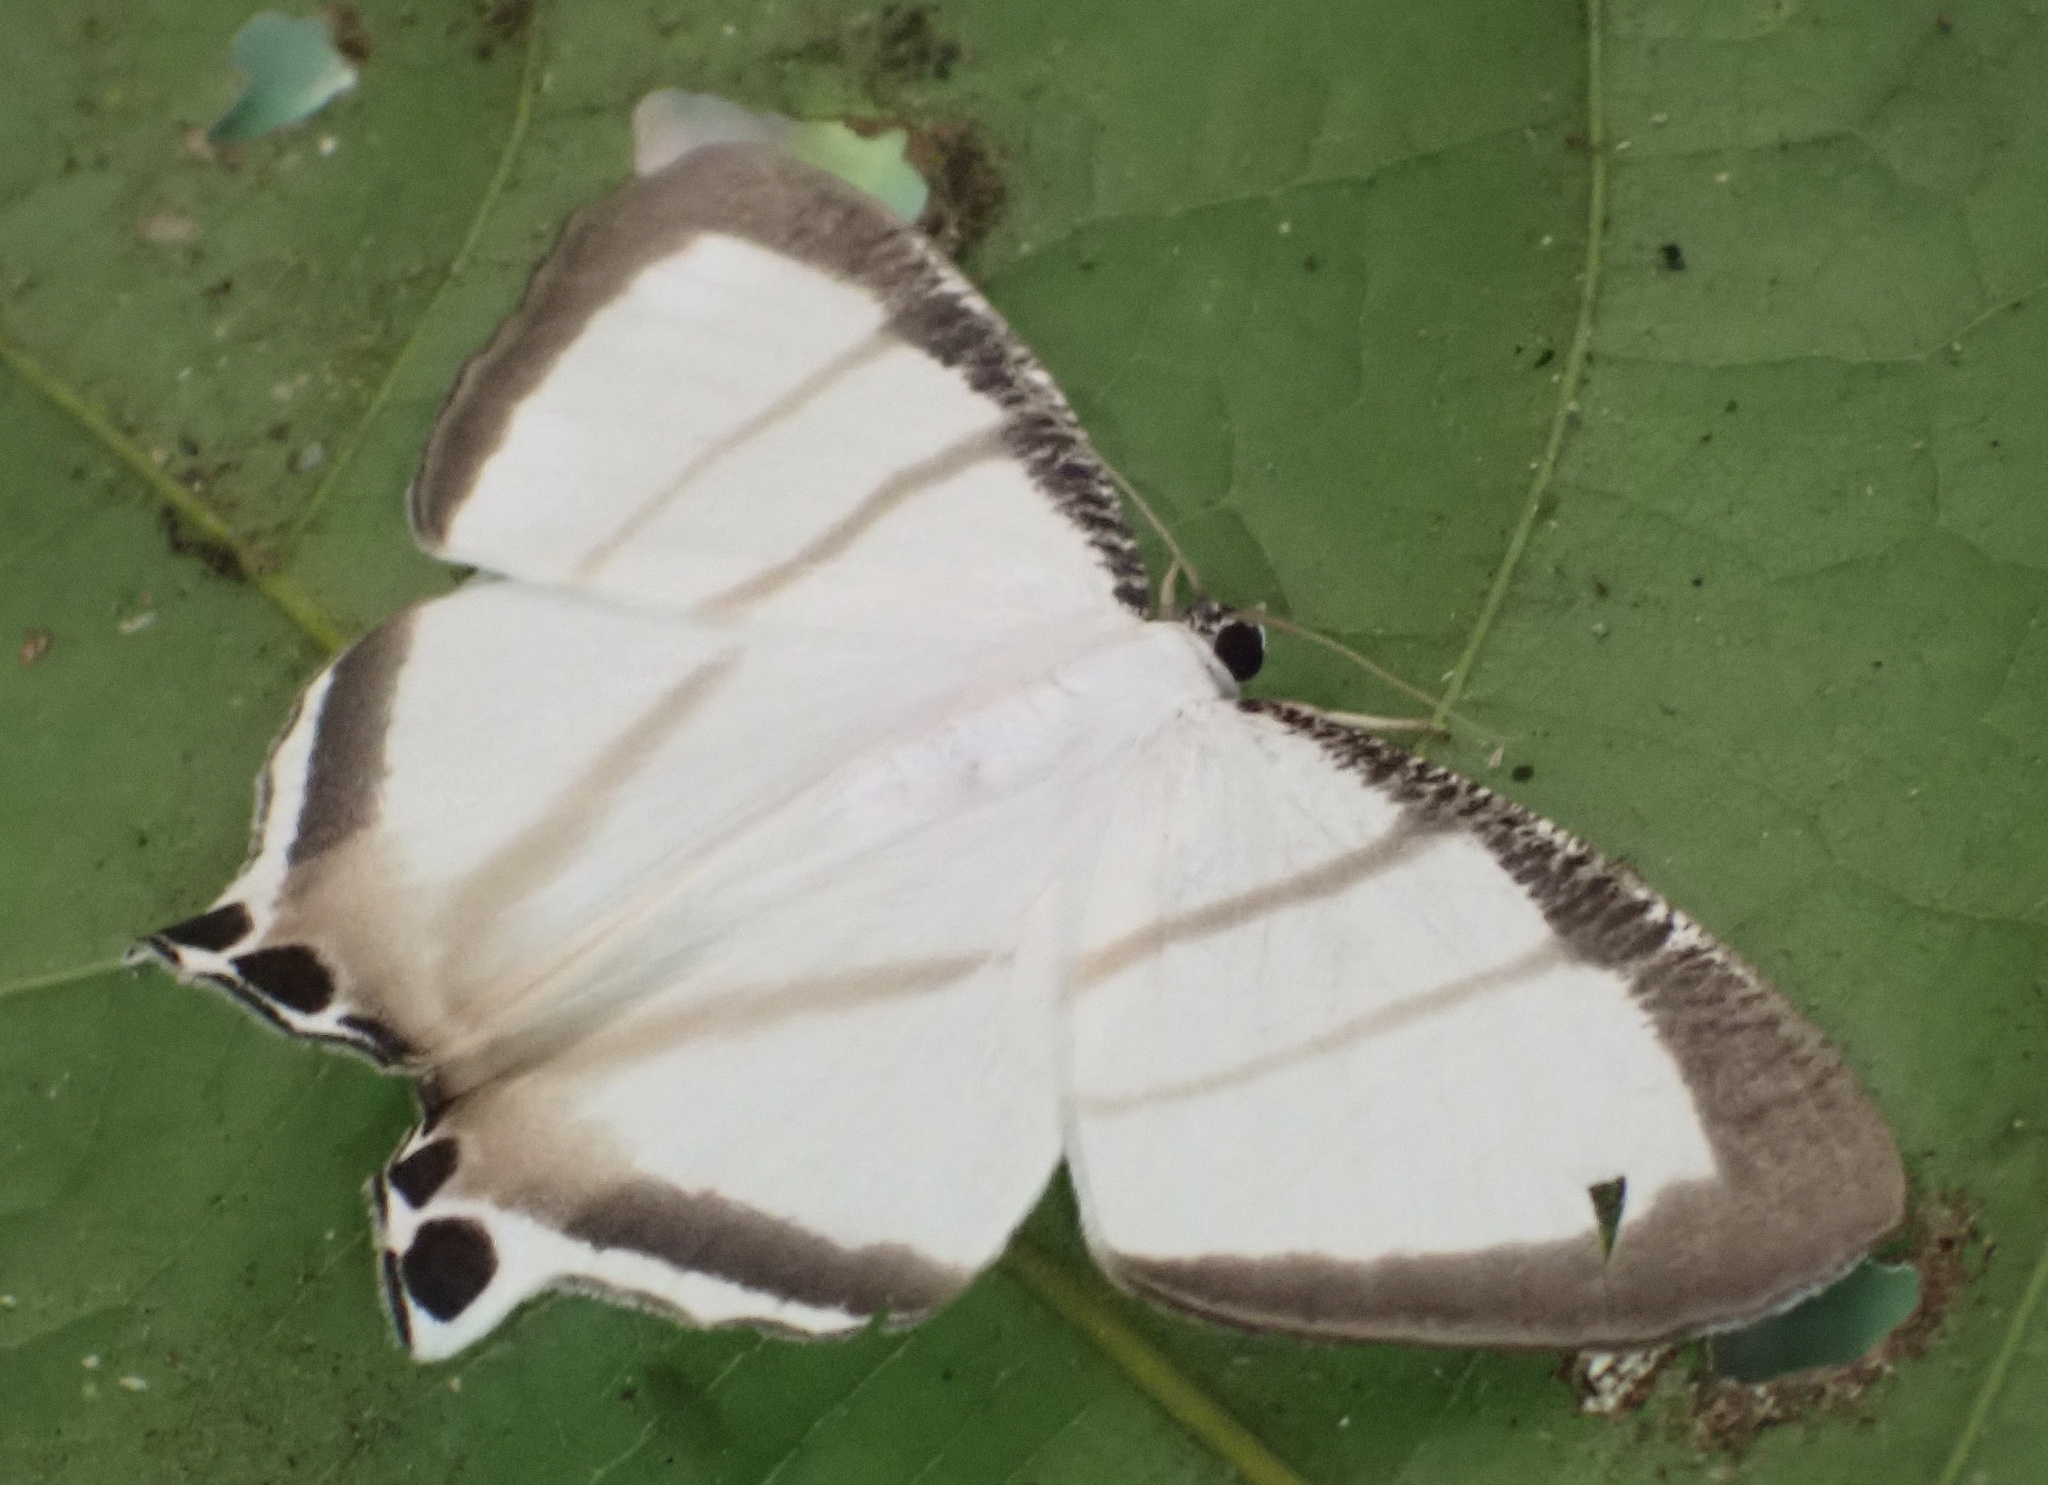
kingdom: Animalia
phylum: Arthropoda
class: Insecta
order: Lepidoptera
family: Uraniidae
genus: Cyphura
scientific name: Cyphura maxima
